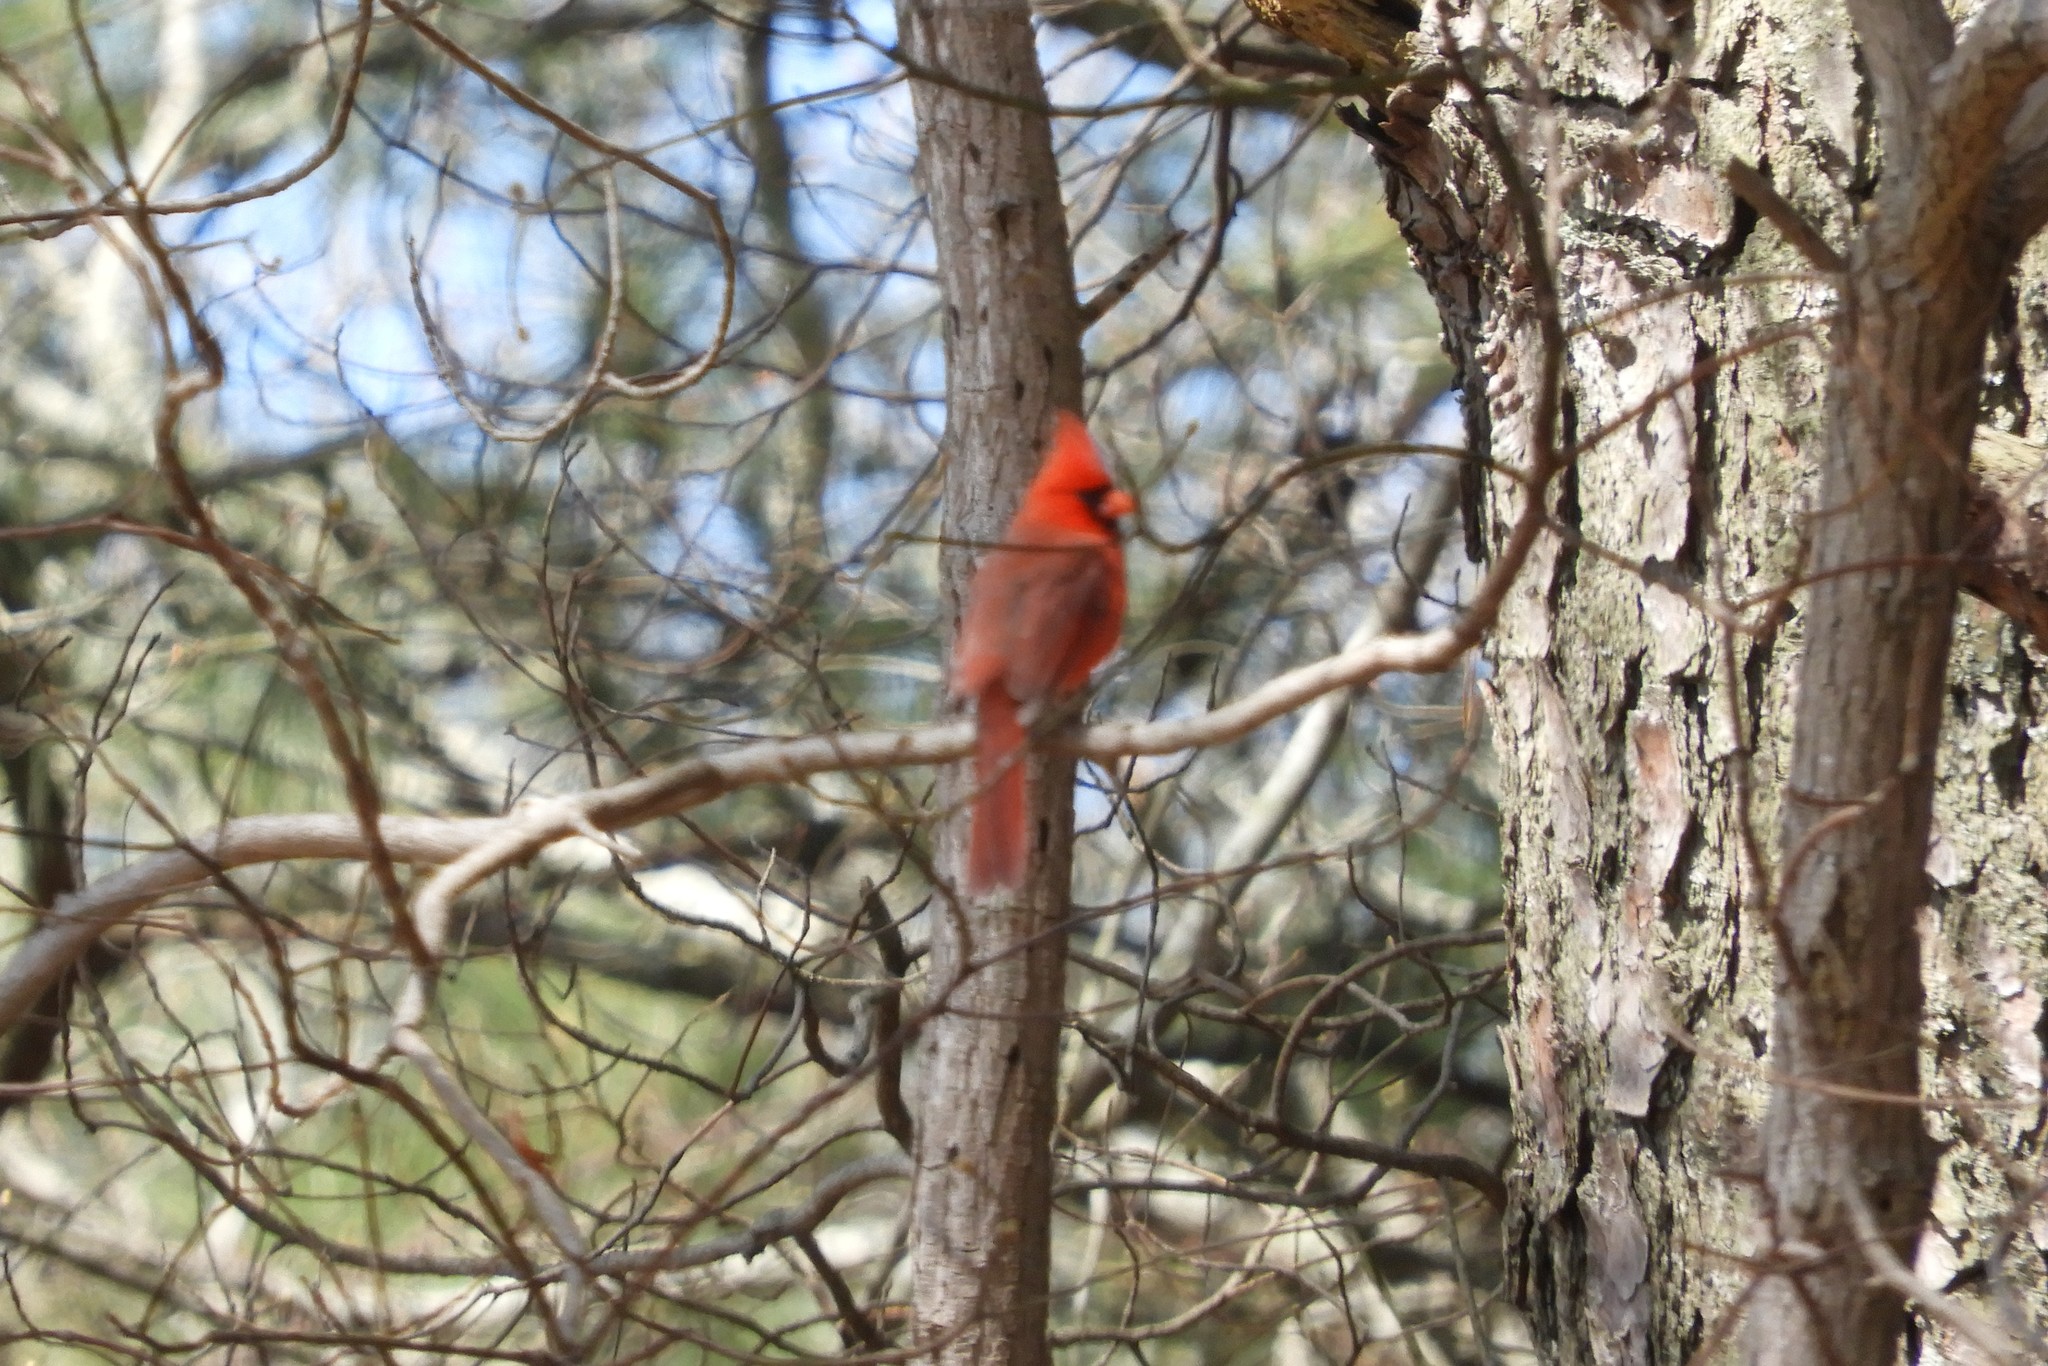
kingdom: Animalia
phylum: Chordata
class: Aves
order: Passeriformes
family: Cardinalidae
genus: Cardinalis
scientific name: Cardinalis cardinalis
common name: Northern cardinal
